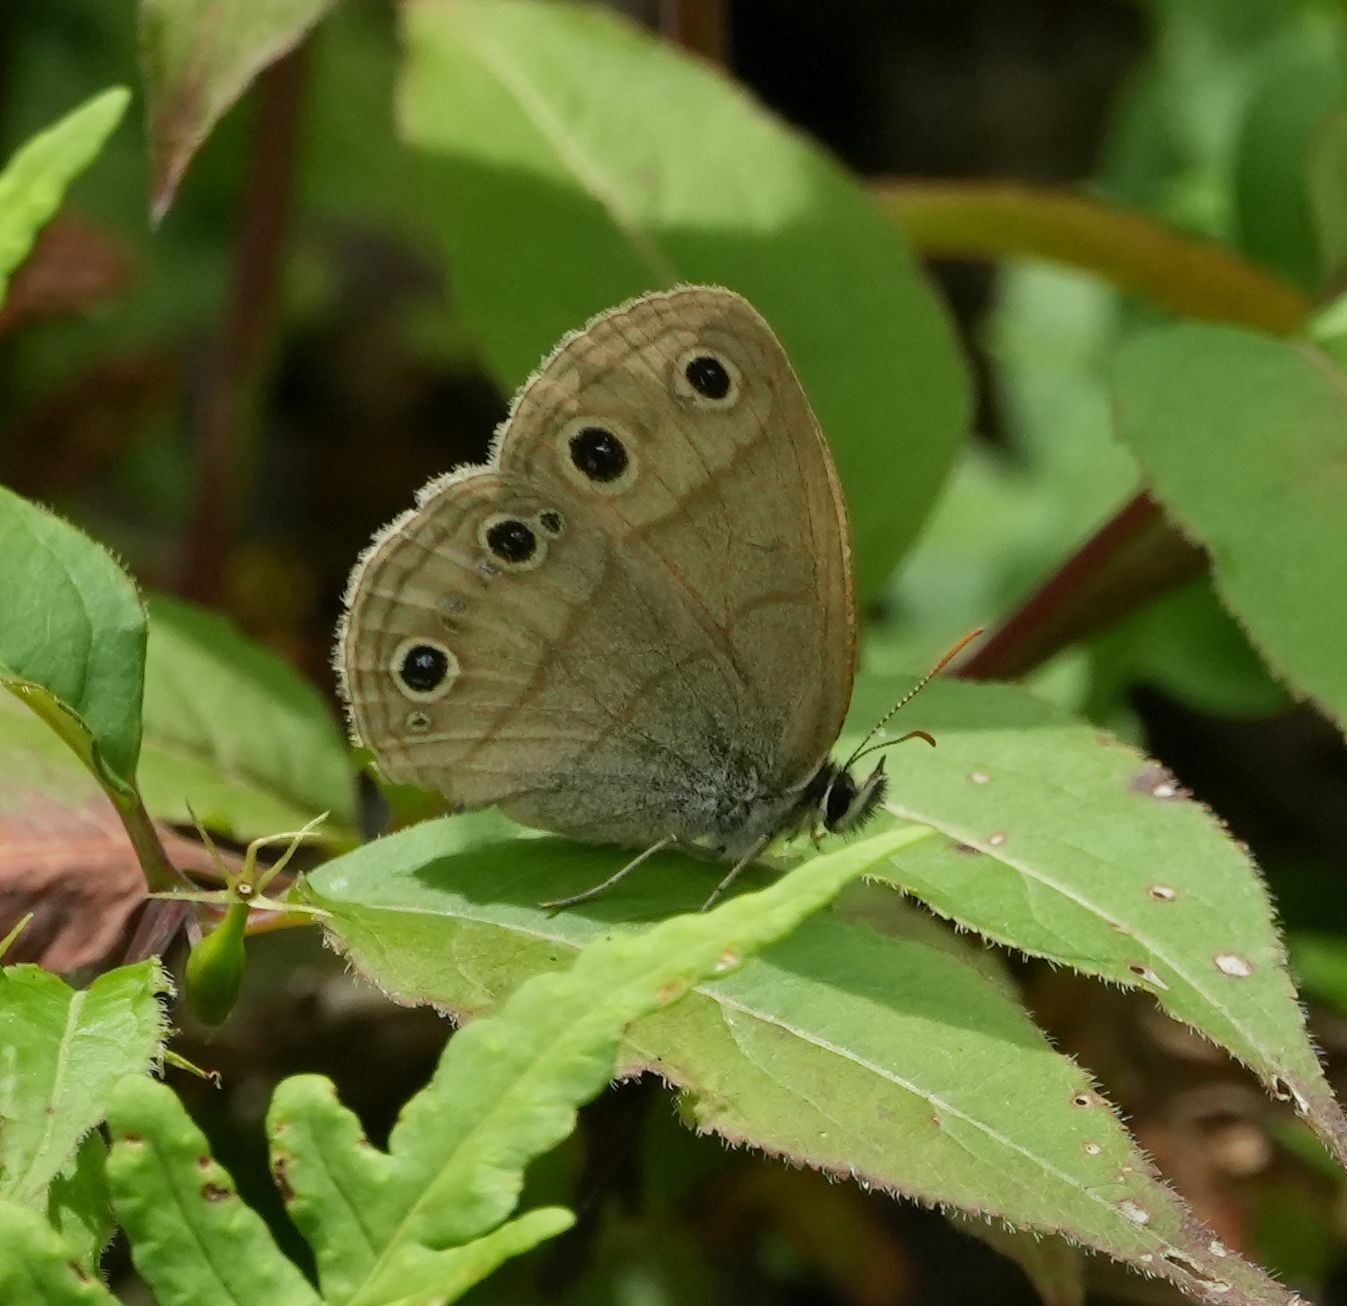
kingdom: Animalia
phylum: Arthropoda
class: Insecta
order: Lepidoptera
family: Nymphalidae
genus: Euptychia
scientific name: Euptychia cymela
